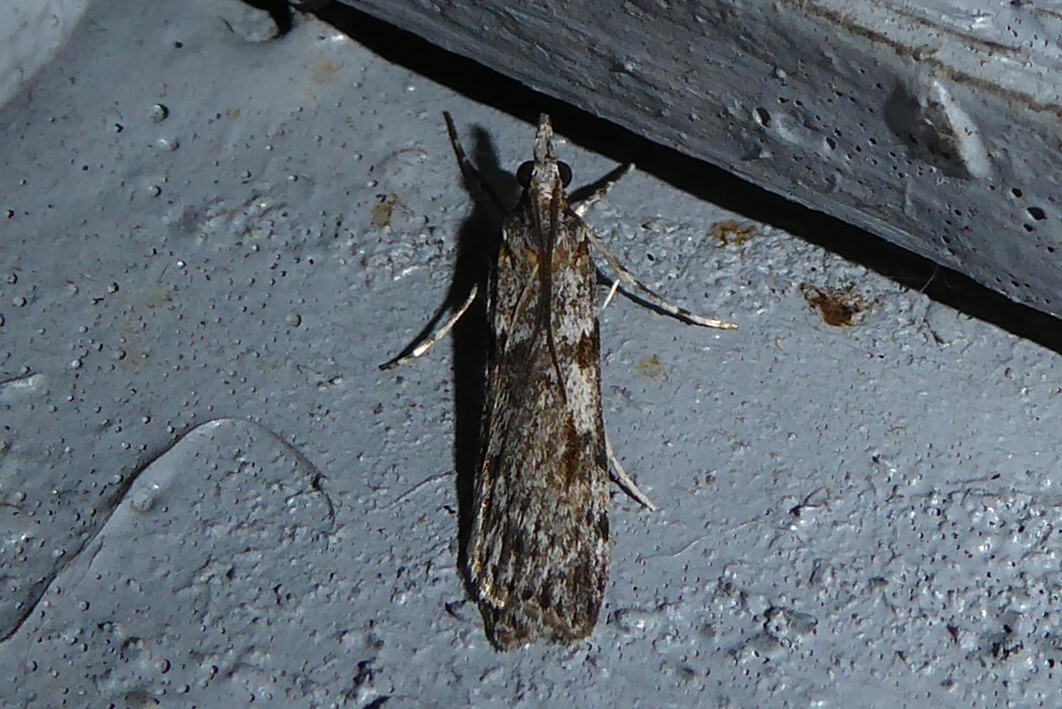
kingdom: Animalia
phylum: Arthropoda
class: Insecta
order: Lepidoptera
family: Crambidae
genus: Scoparia
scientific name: Scoparia halopis
